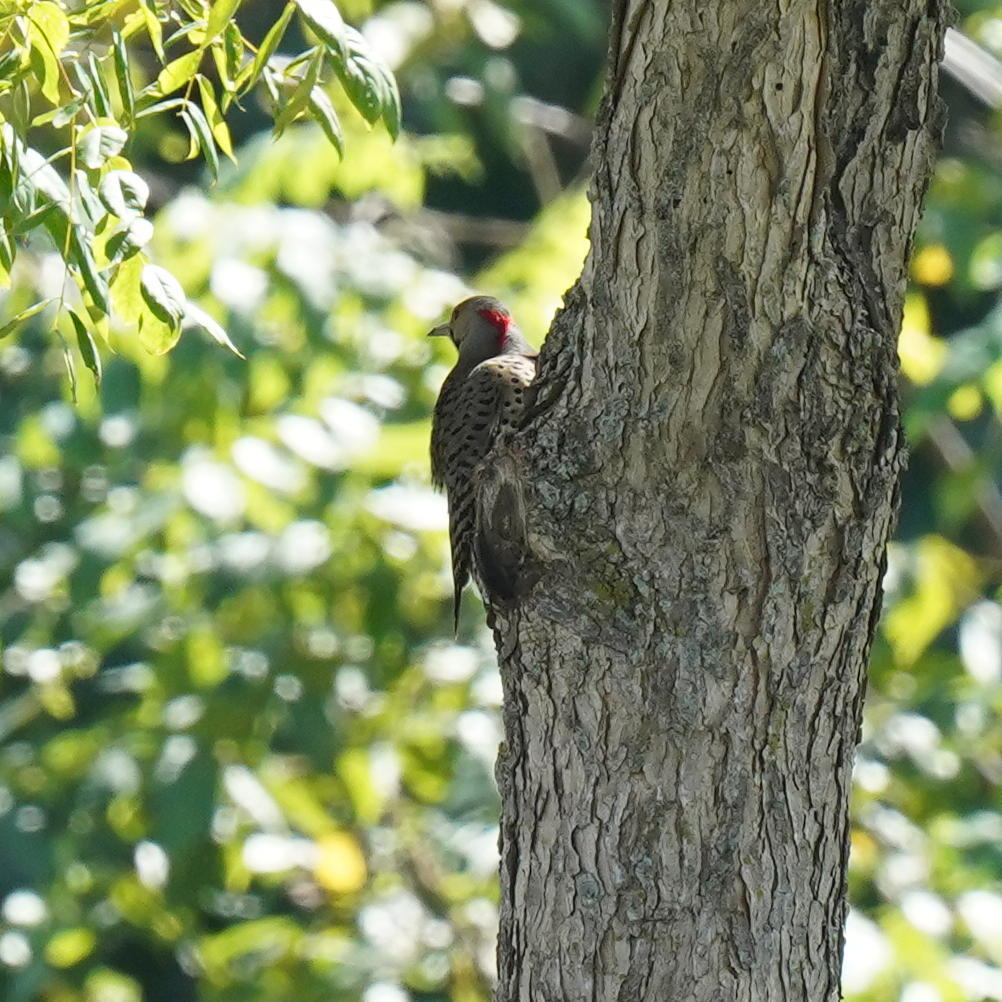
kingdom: Animalia
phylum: Chordata
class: Aves
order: Piciformes
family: Picidae
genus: Colaptes
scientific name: Colaptes auratus
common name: Northern flicker
